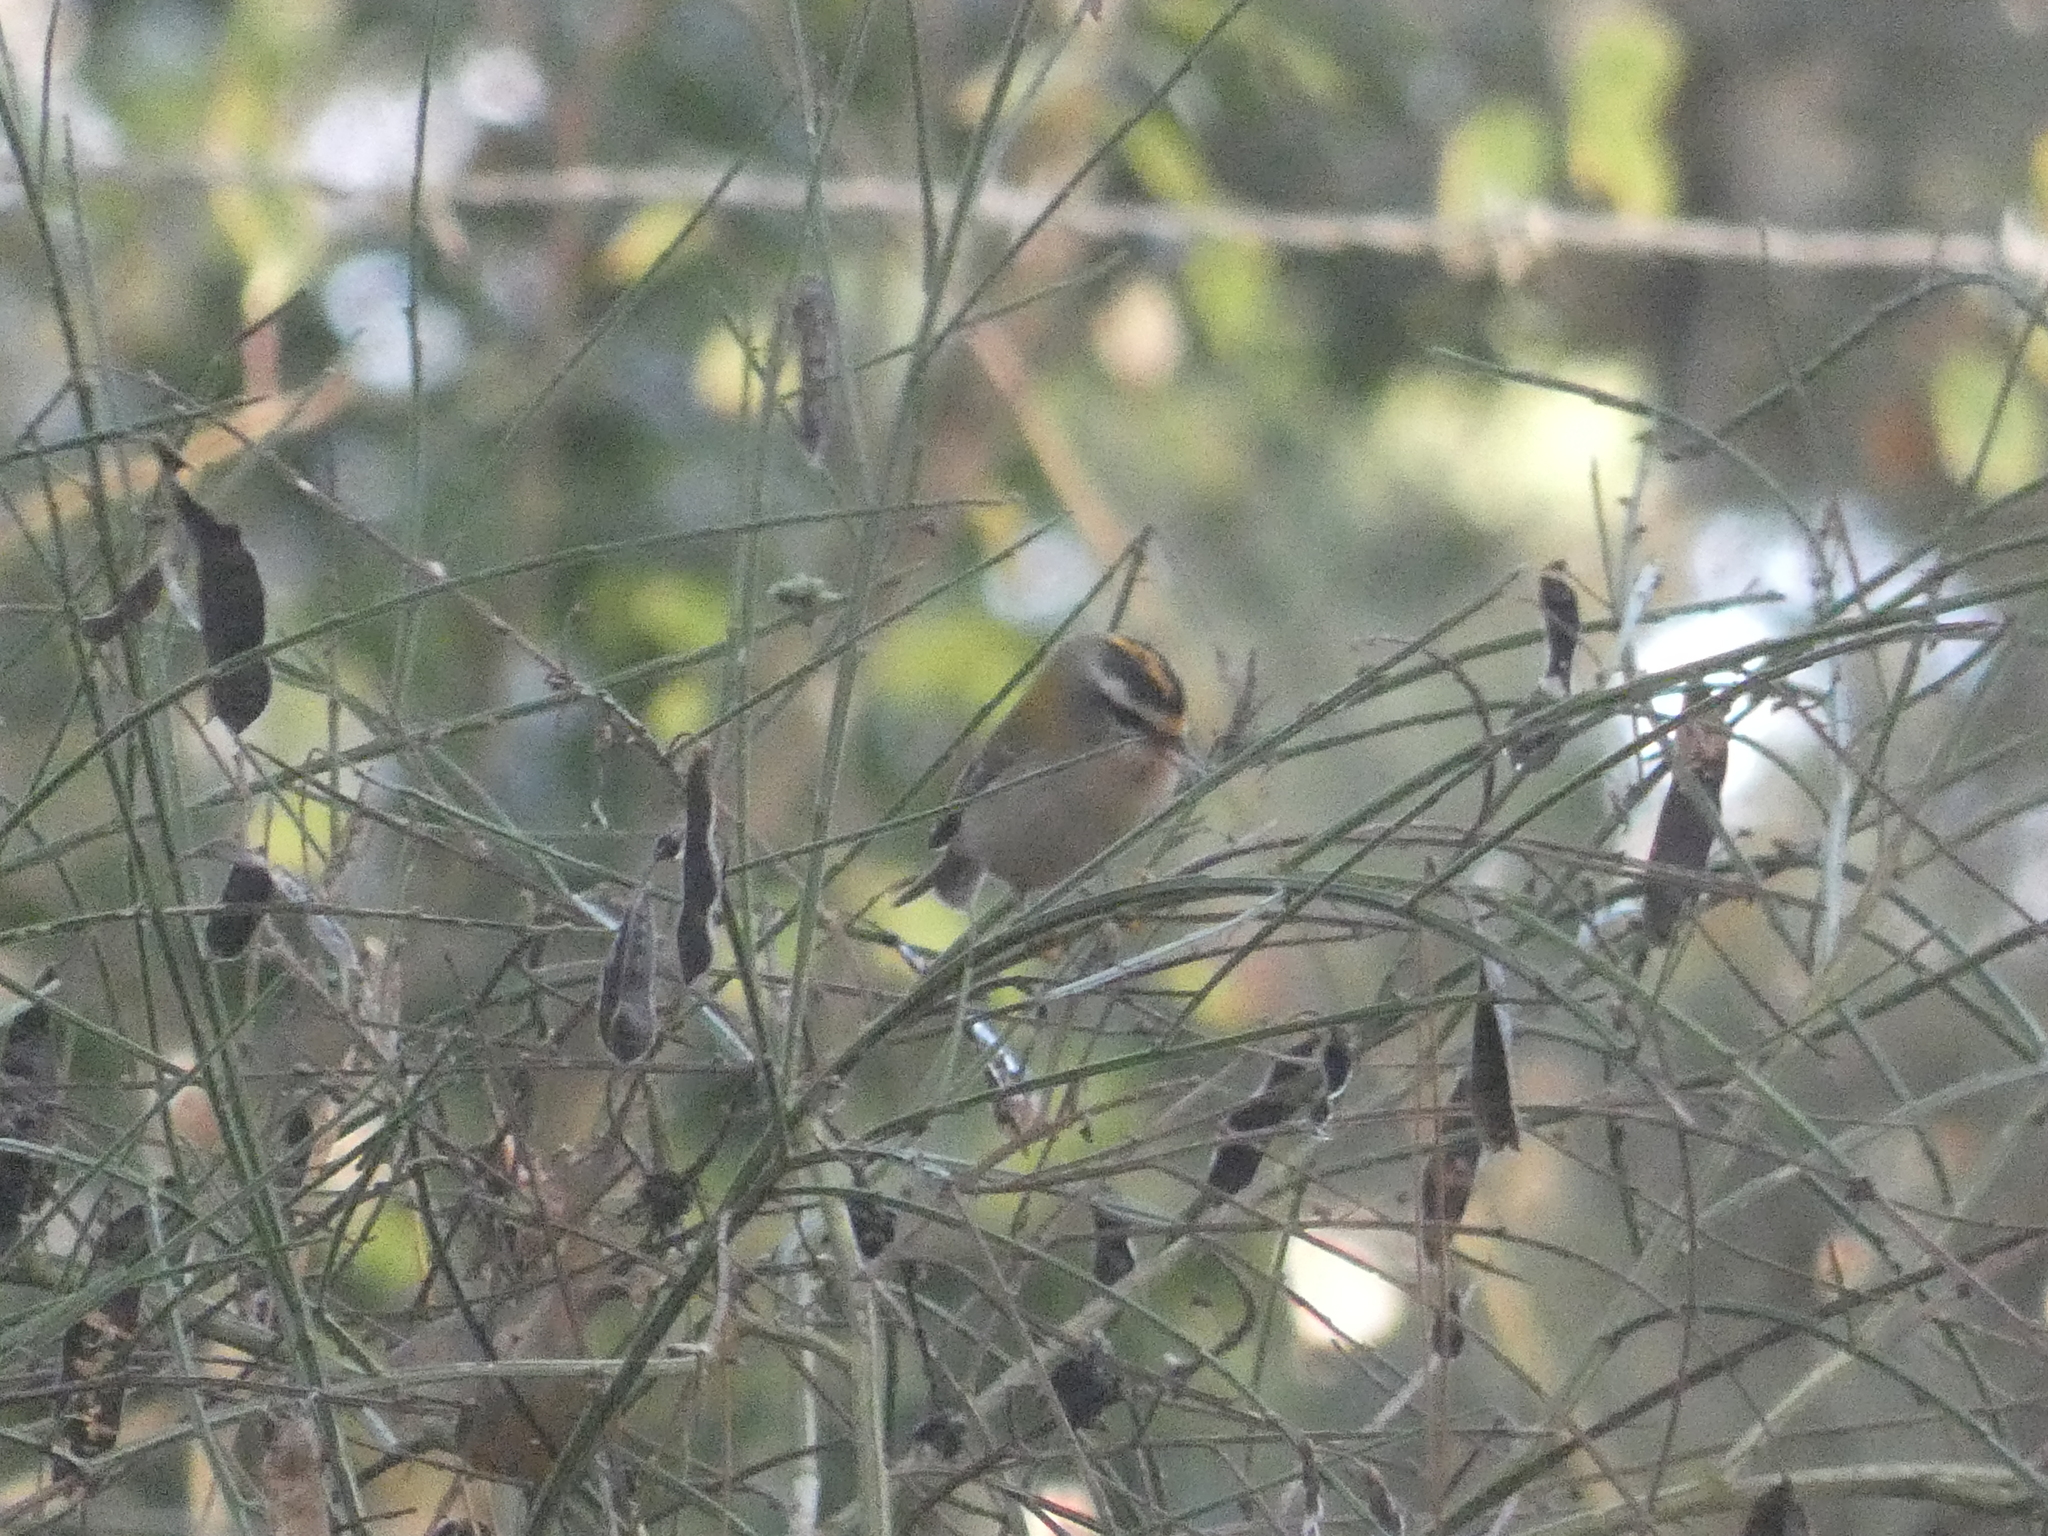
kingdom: Animalia
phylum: Chordata
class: Aves
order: Passeriformes
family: Regulidae
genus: Regulus
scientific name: Regulus ignicapilla
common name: Firecrest
